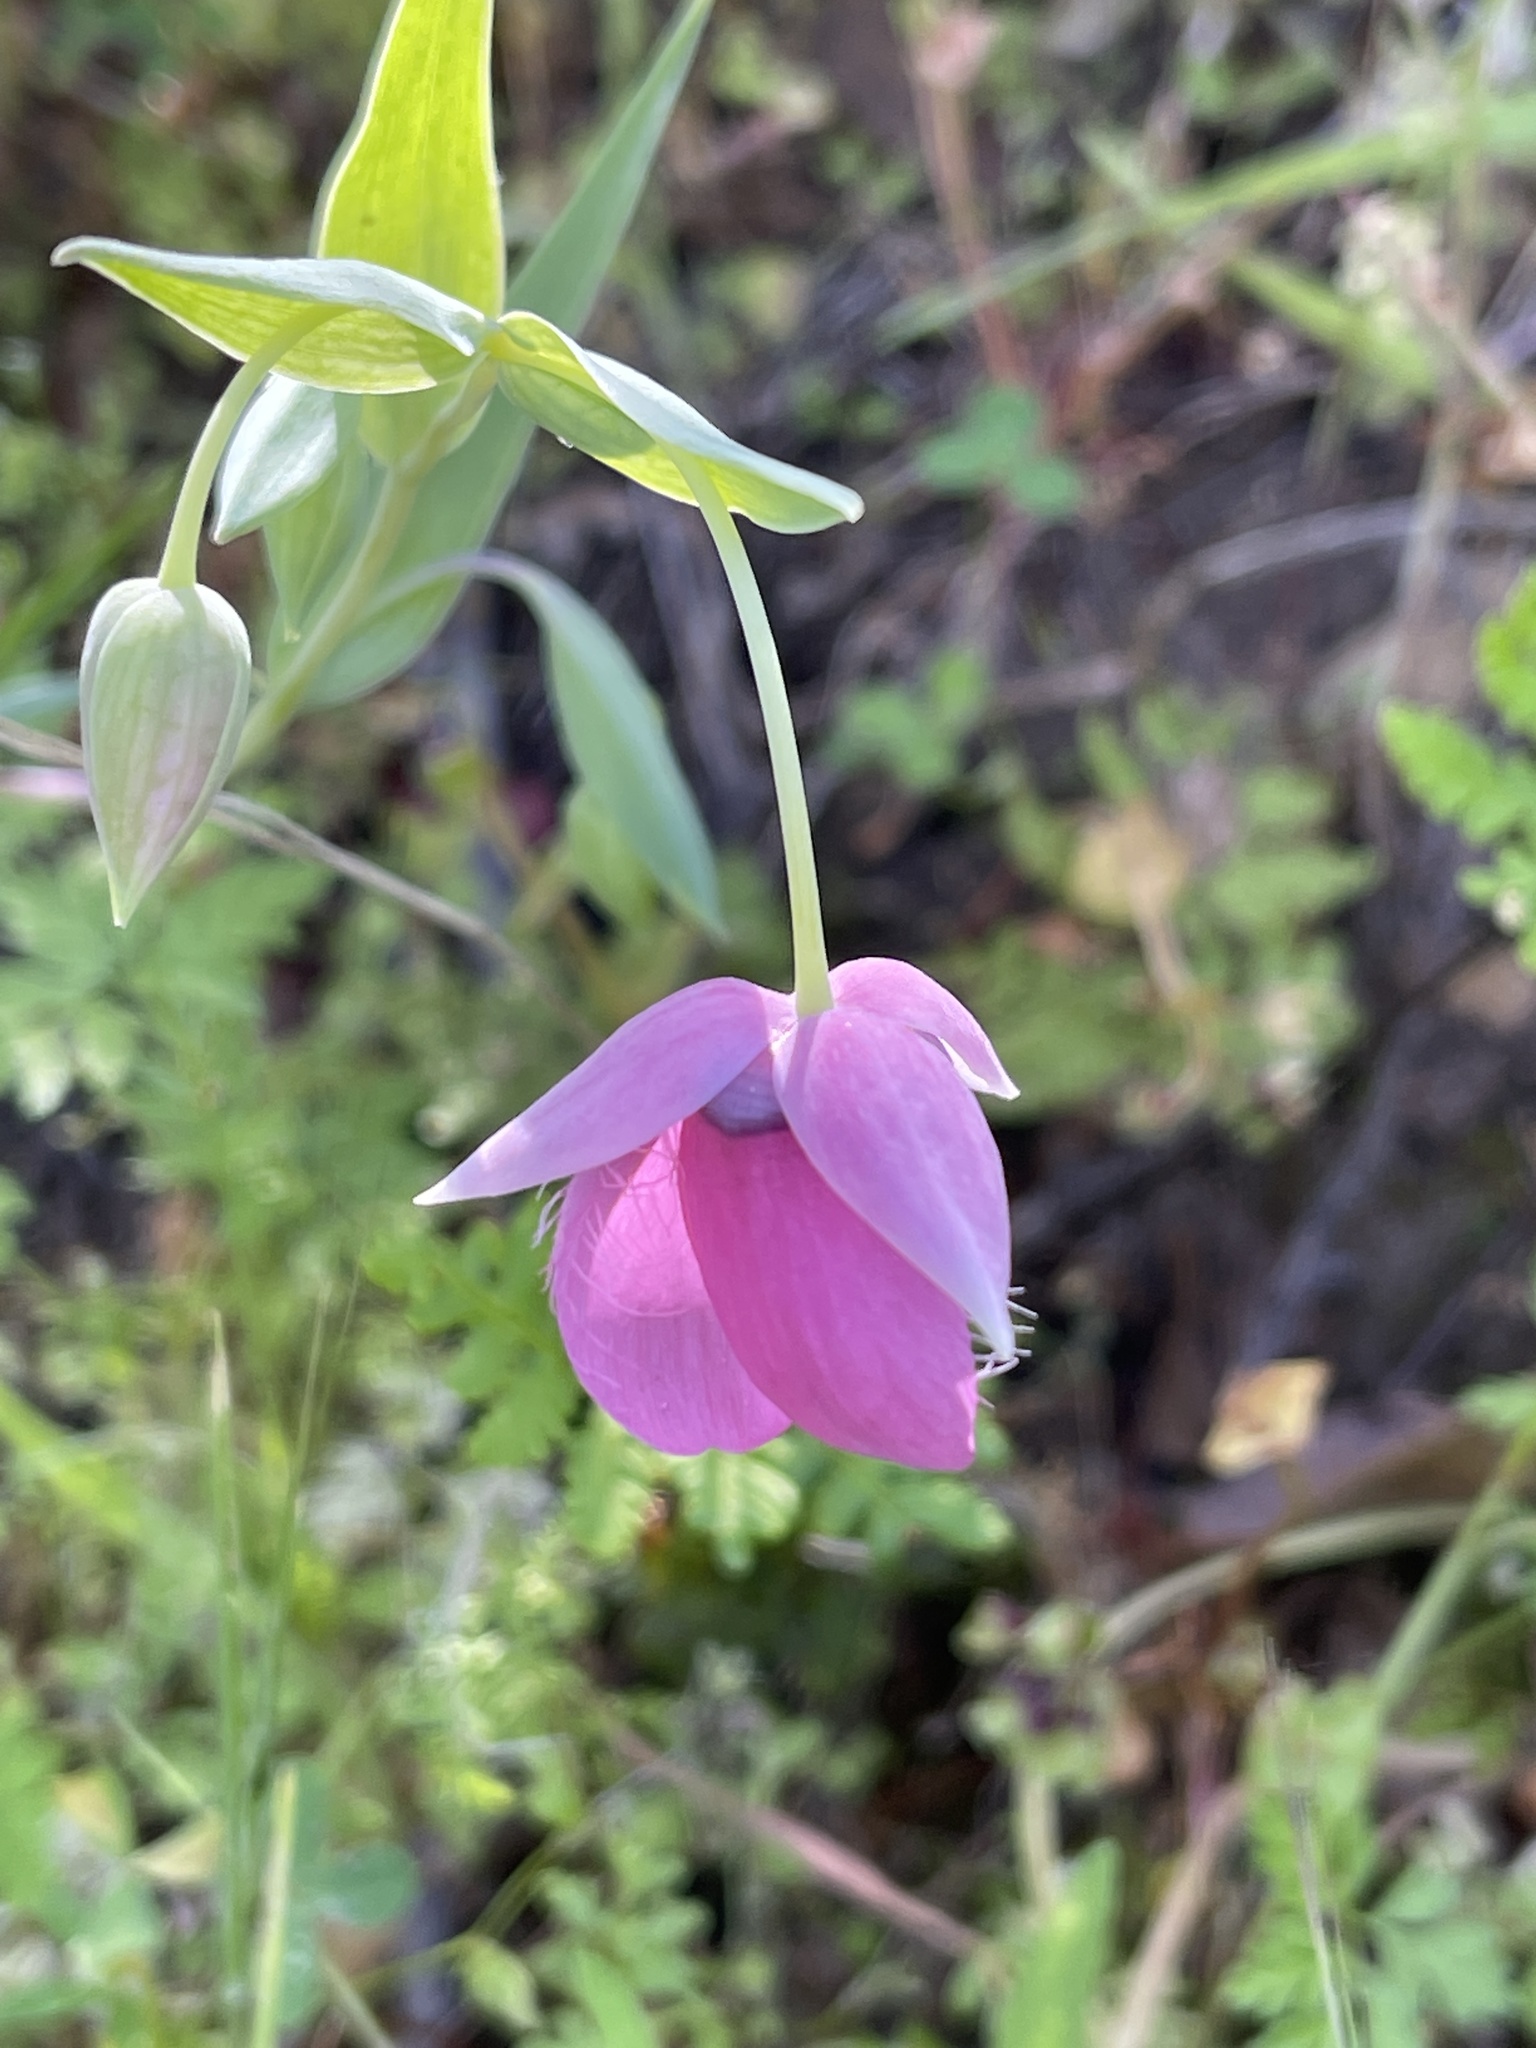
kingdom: Plantae
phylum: Tracheophyta
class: Liliopsida
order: Liliales
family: Liliaceae
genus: Calochortus
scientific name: Calochortus amoenus
